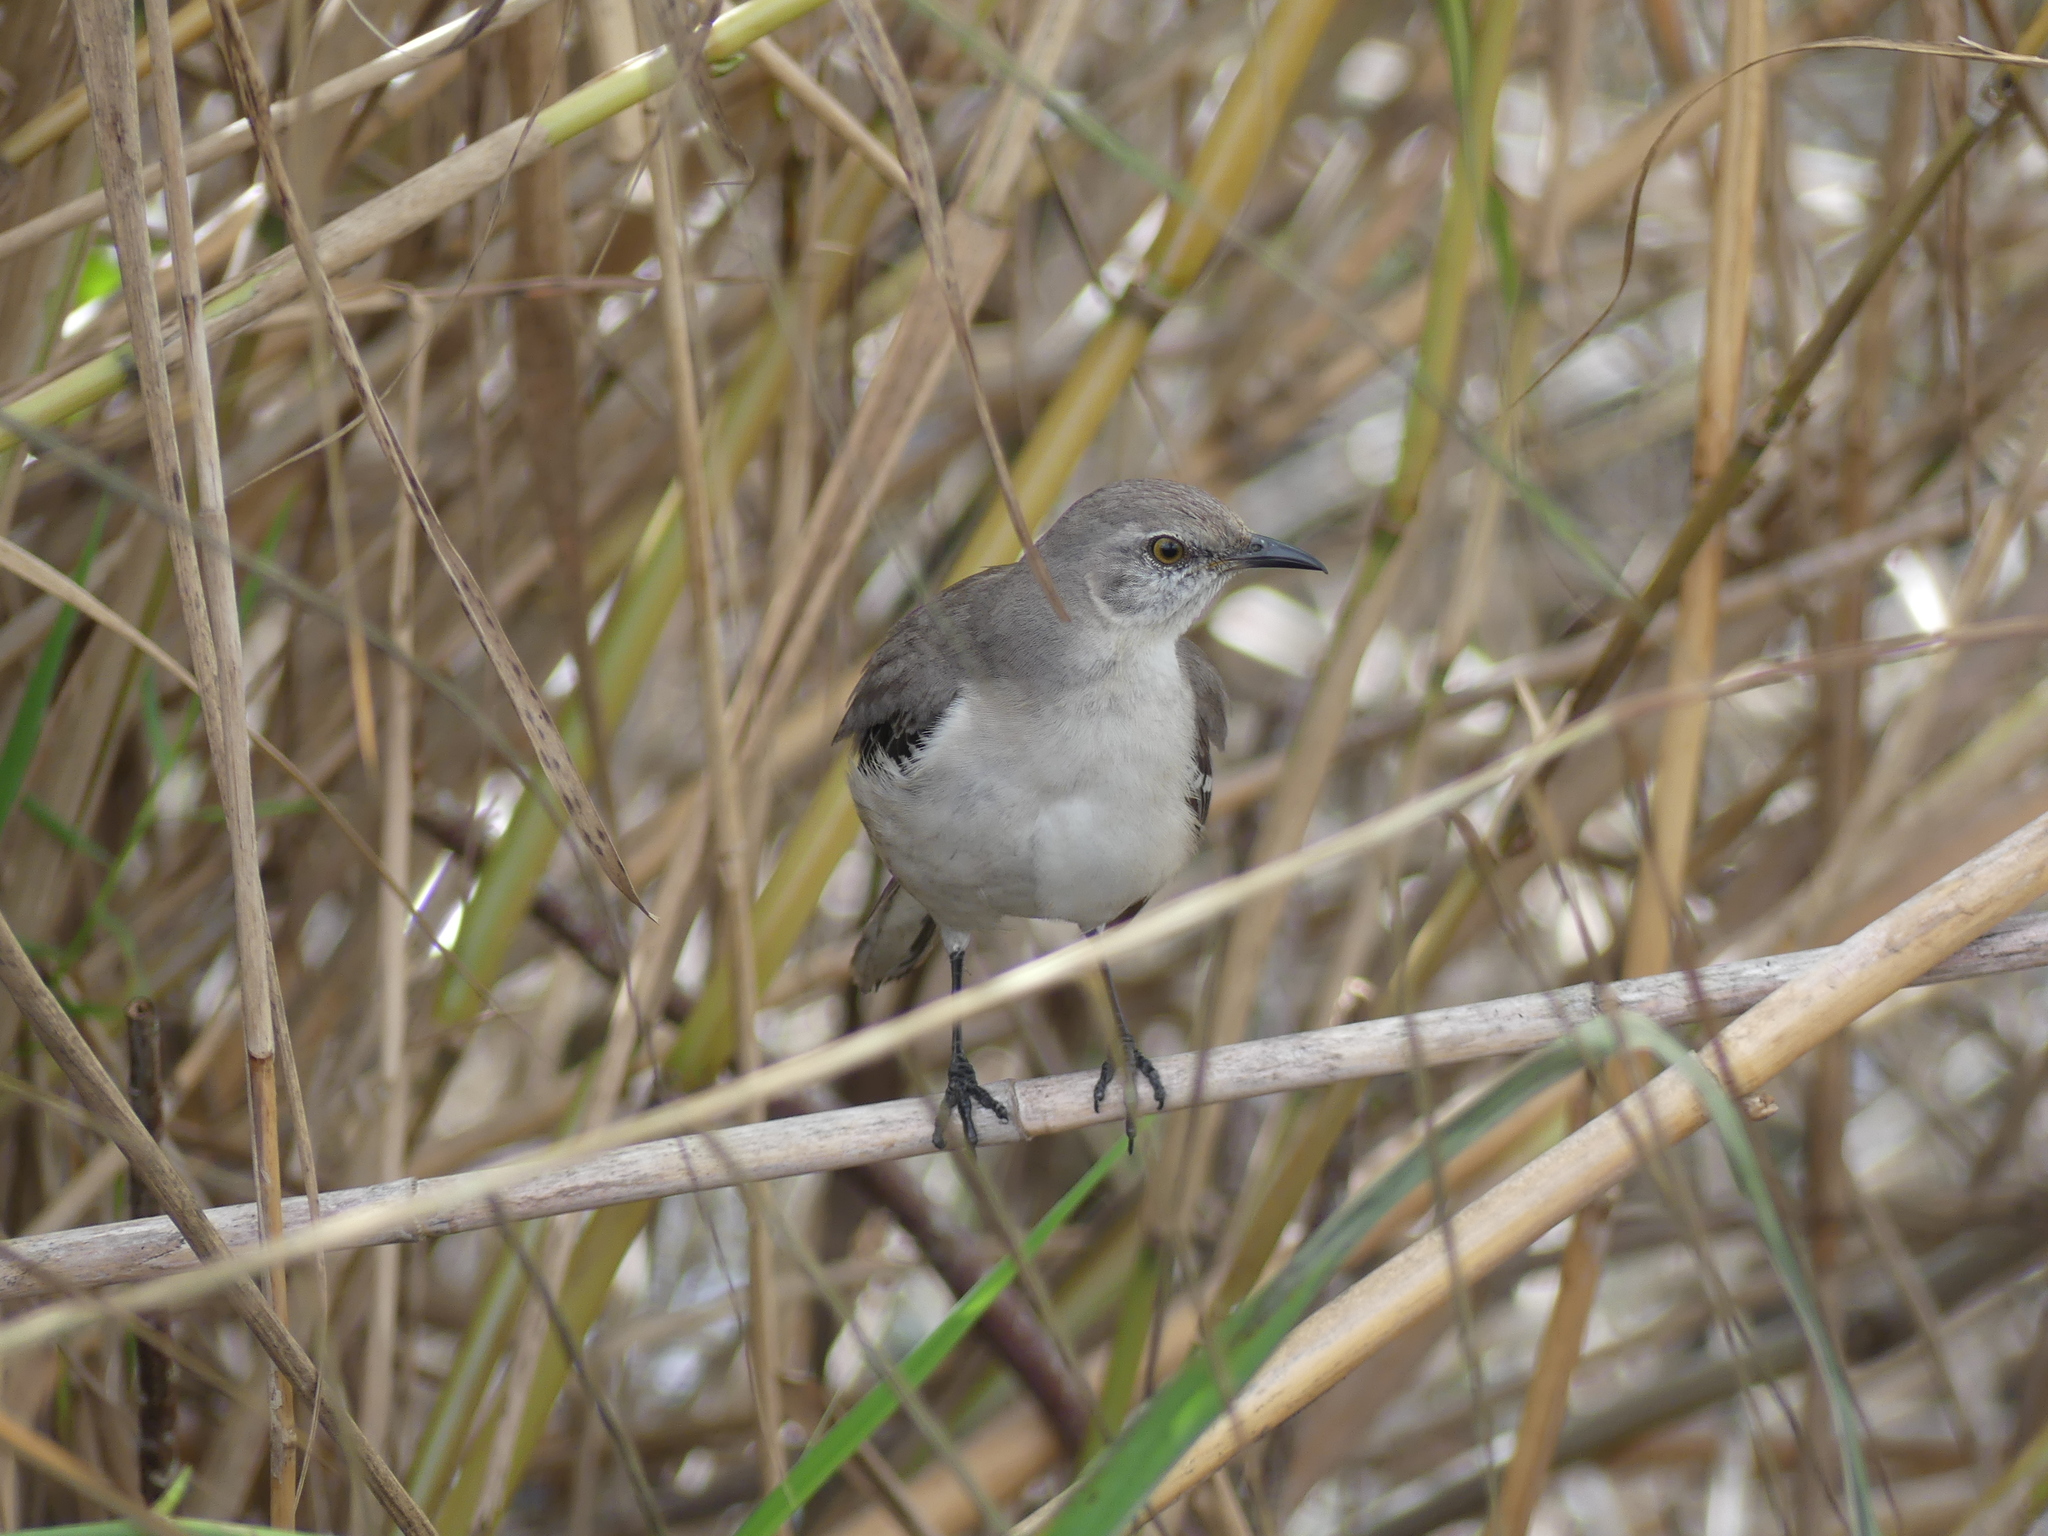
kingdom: Animalia
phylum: Chordata
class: Aves
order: Passeriformes
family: Mimidae
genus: Mimus
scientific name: Mimus polyglottos
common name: Northern mockingbird
